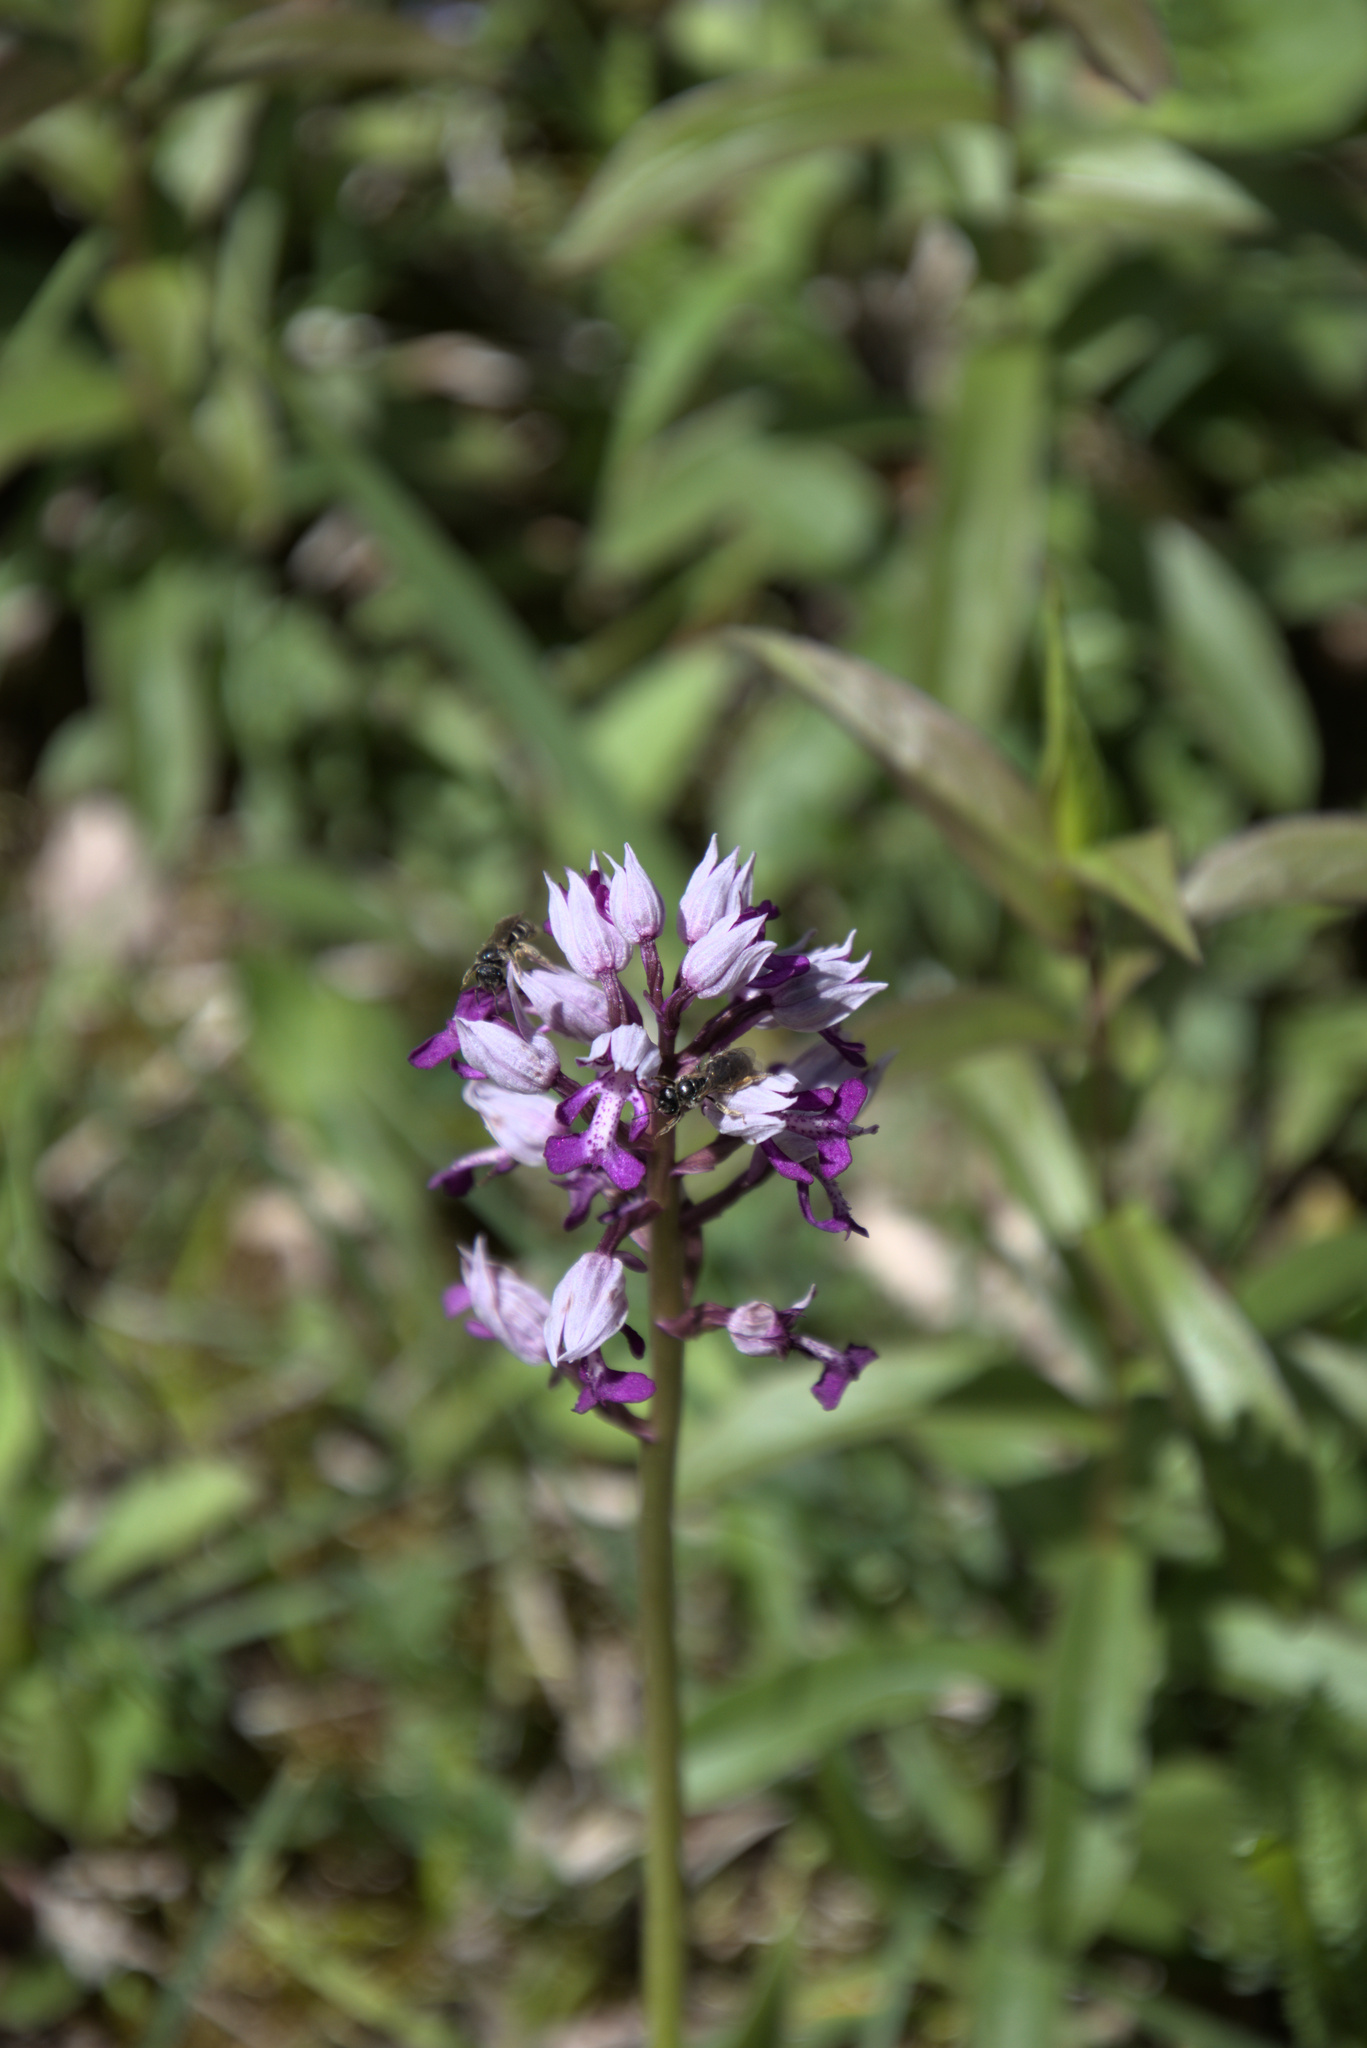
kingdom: Plantae
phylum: Tracheophyta
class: Liliopsida
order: Asparagales
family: Orchidaceae
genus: Orchis
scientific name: Orchis militaris
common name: Military orchid
